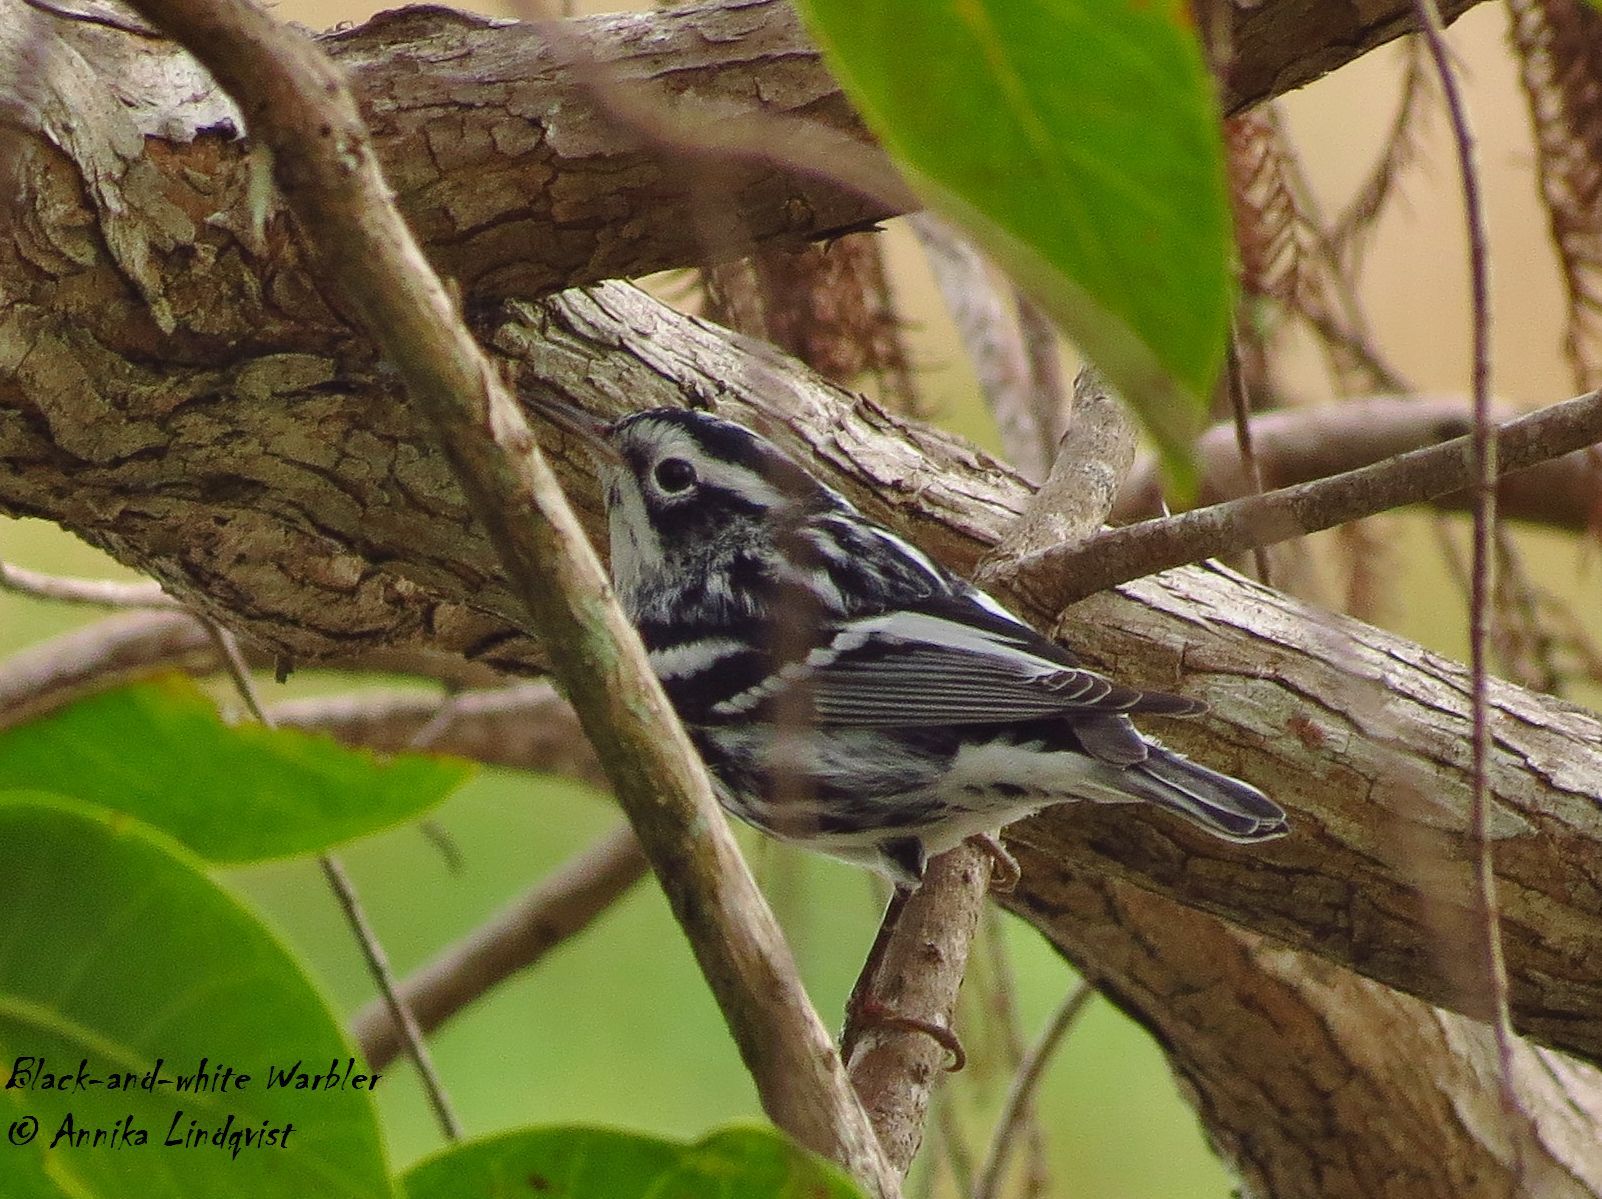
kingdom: Animalia
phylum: Chordata
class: Aves
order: Passeriformes
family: Parulidae
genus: Mniotilta
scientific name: Mniotilta varia
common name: Black-and-white warbler
